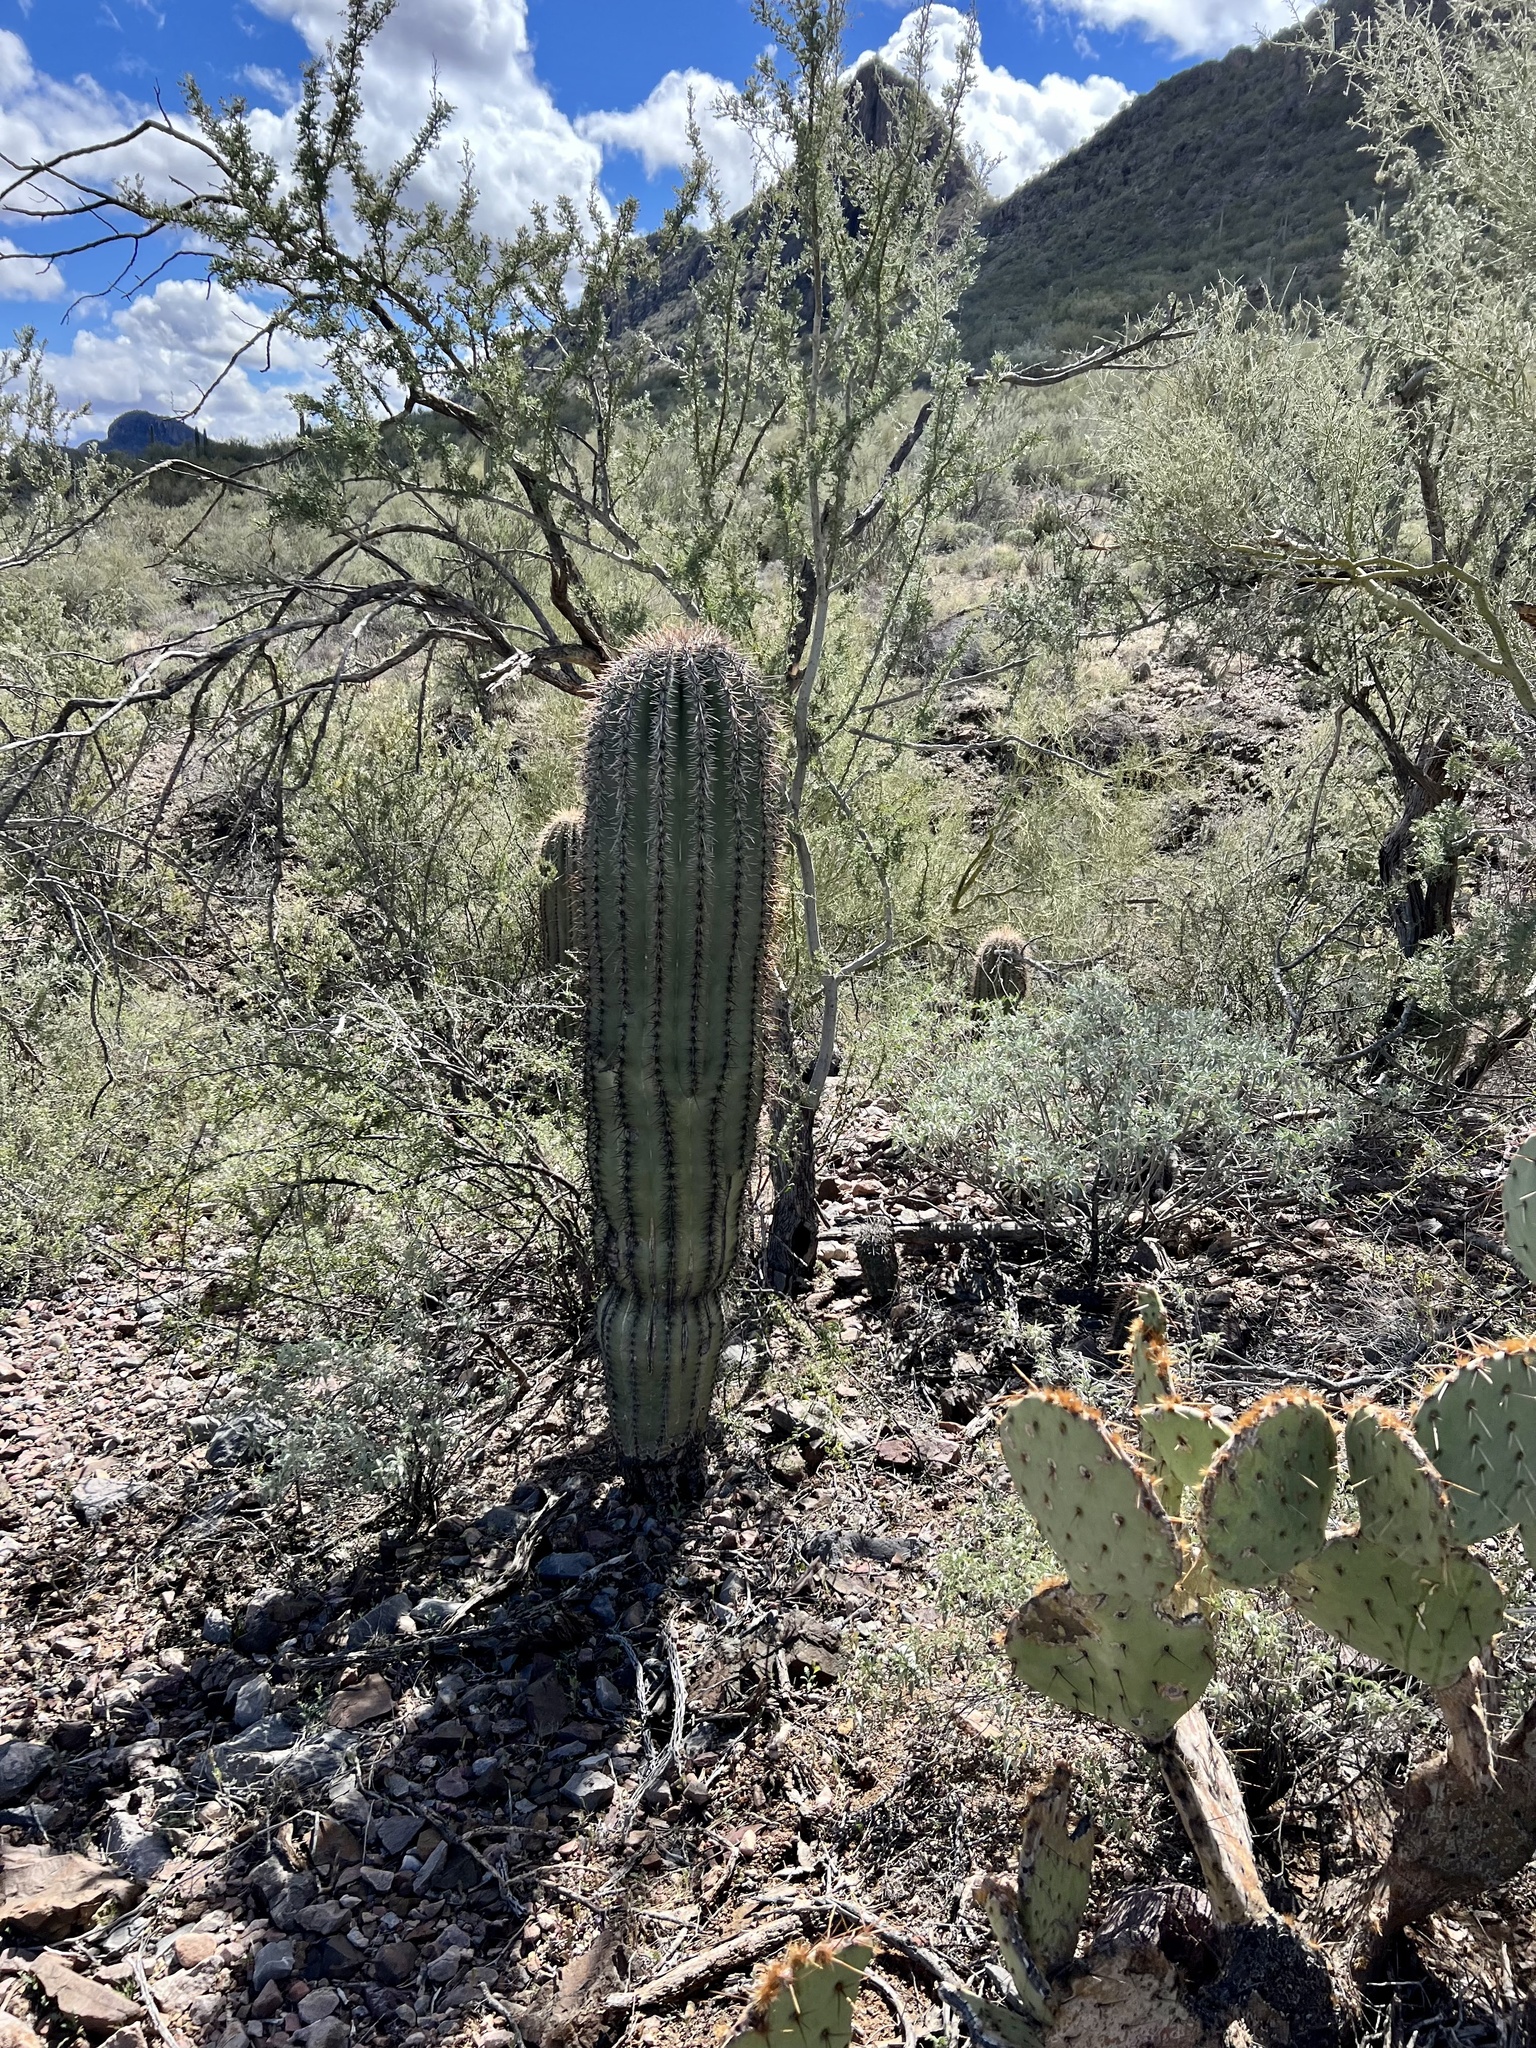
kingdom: Plantae
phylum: Tracheophyta
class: Magnoliopsida
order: Caryophyllales
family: Cactaceae
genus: Carnegiea
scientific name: Carnegiea gigantea
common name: Saguaro
